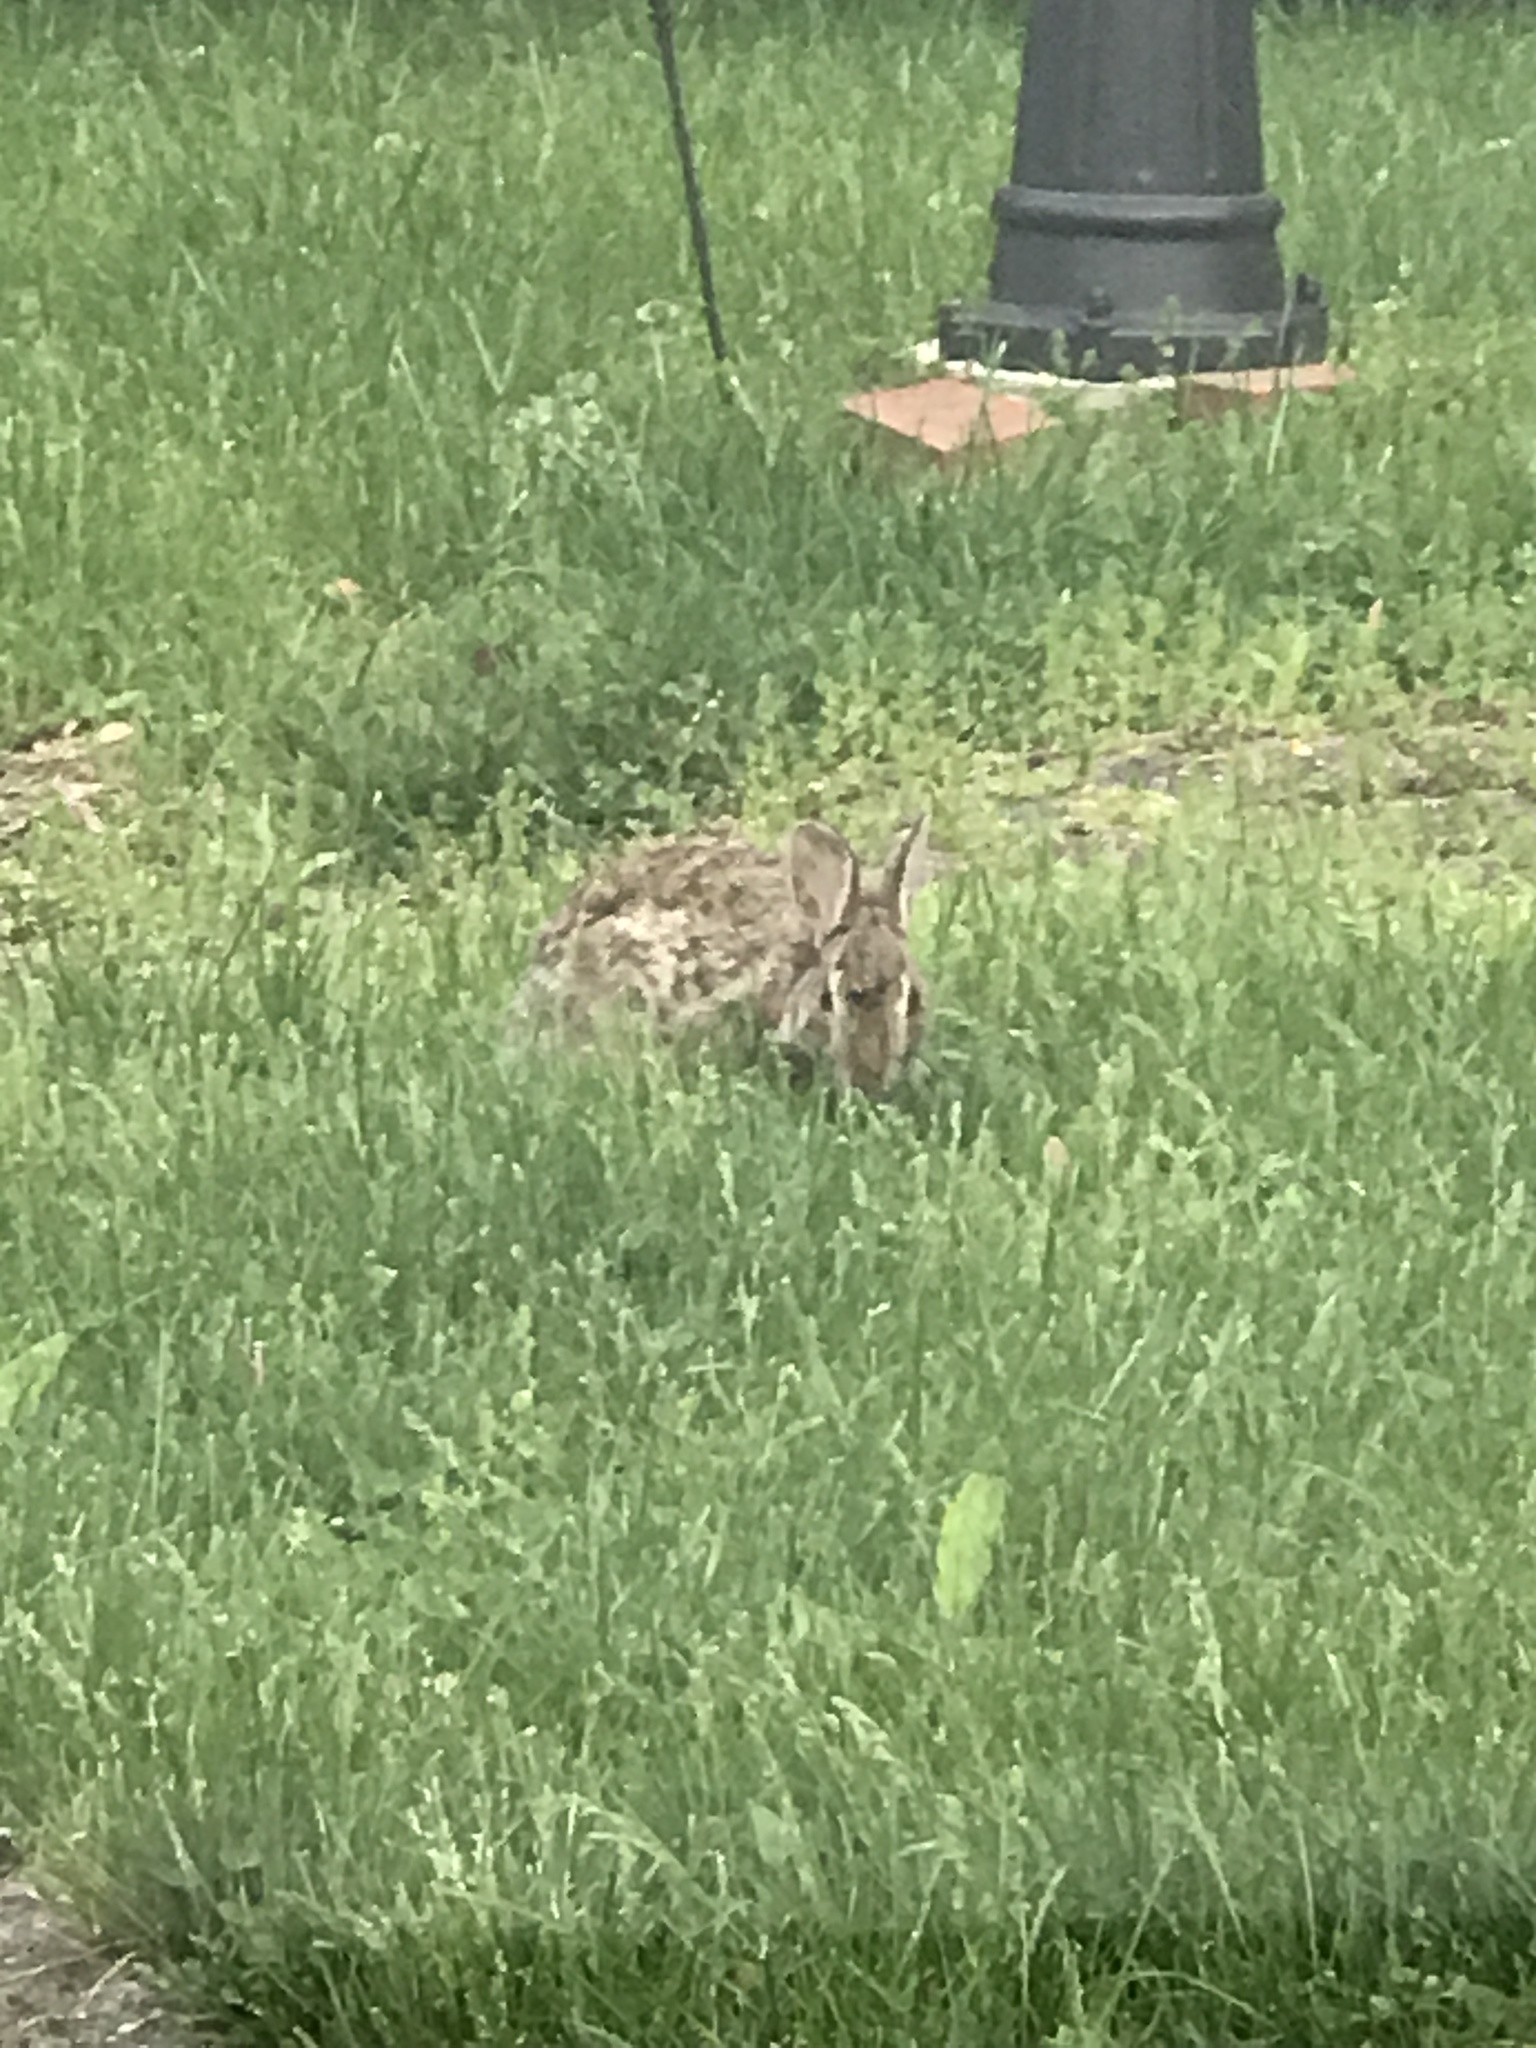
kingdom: Animalia
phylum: Chordata
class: Mammalia
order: Lagomorpha
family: Leporidae
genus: Sylvilagus
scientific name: Sylvilagus floridanus
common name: Eastern cottontail
